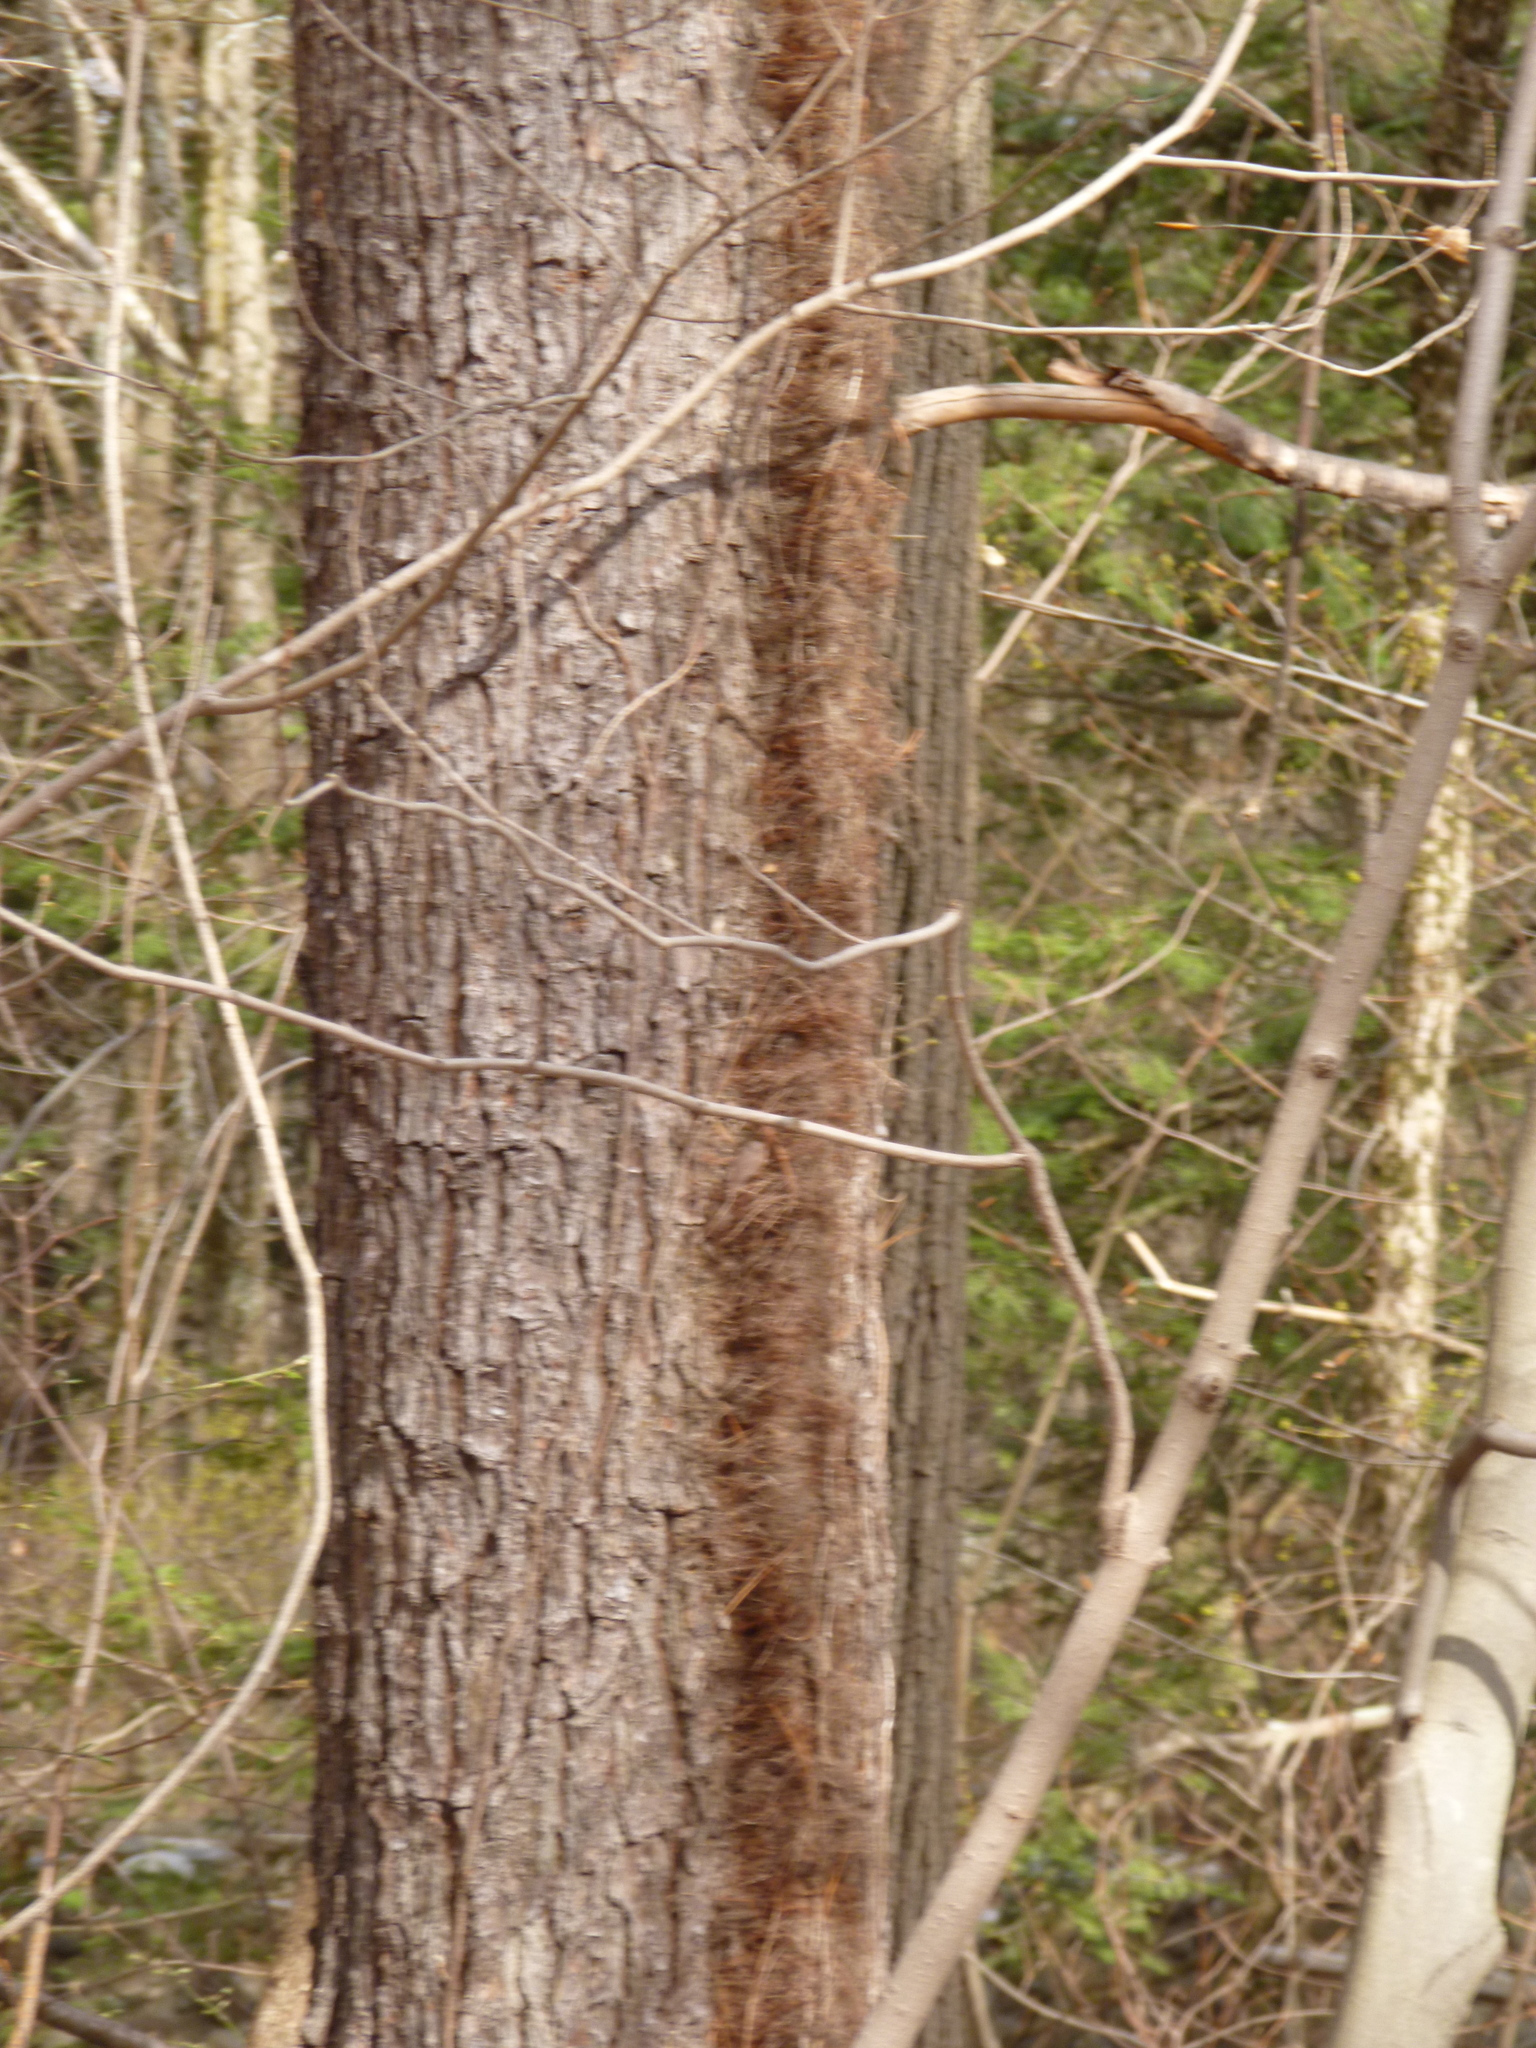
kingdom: Plantae
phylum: Tracheophyta
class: Magnoliopsida
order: Sapindales
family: Anacardiaceae
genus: Toxicodendron
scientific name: Toxicodendron radicans
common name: Poison ivy
